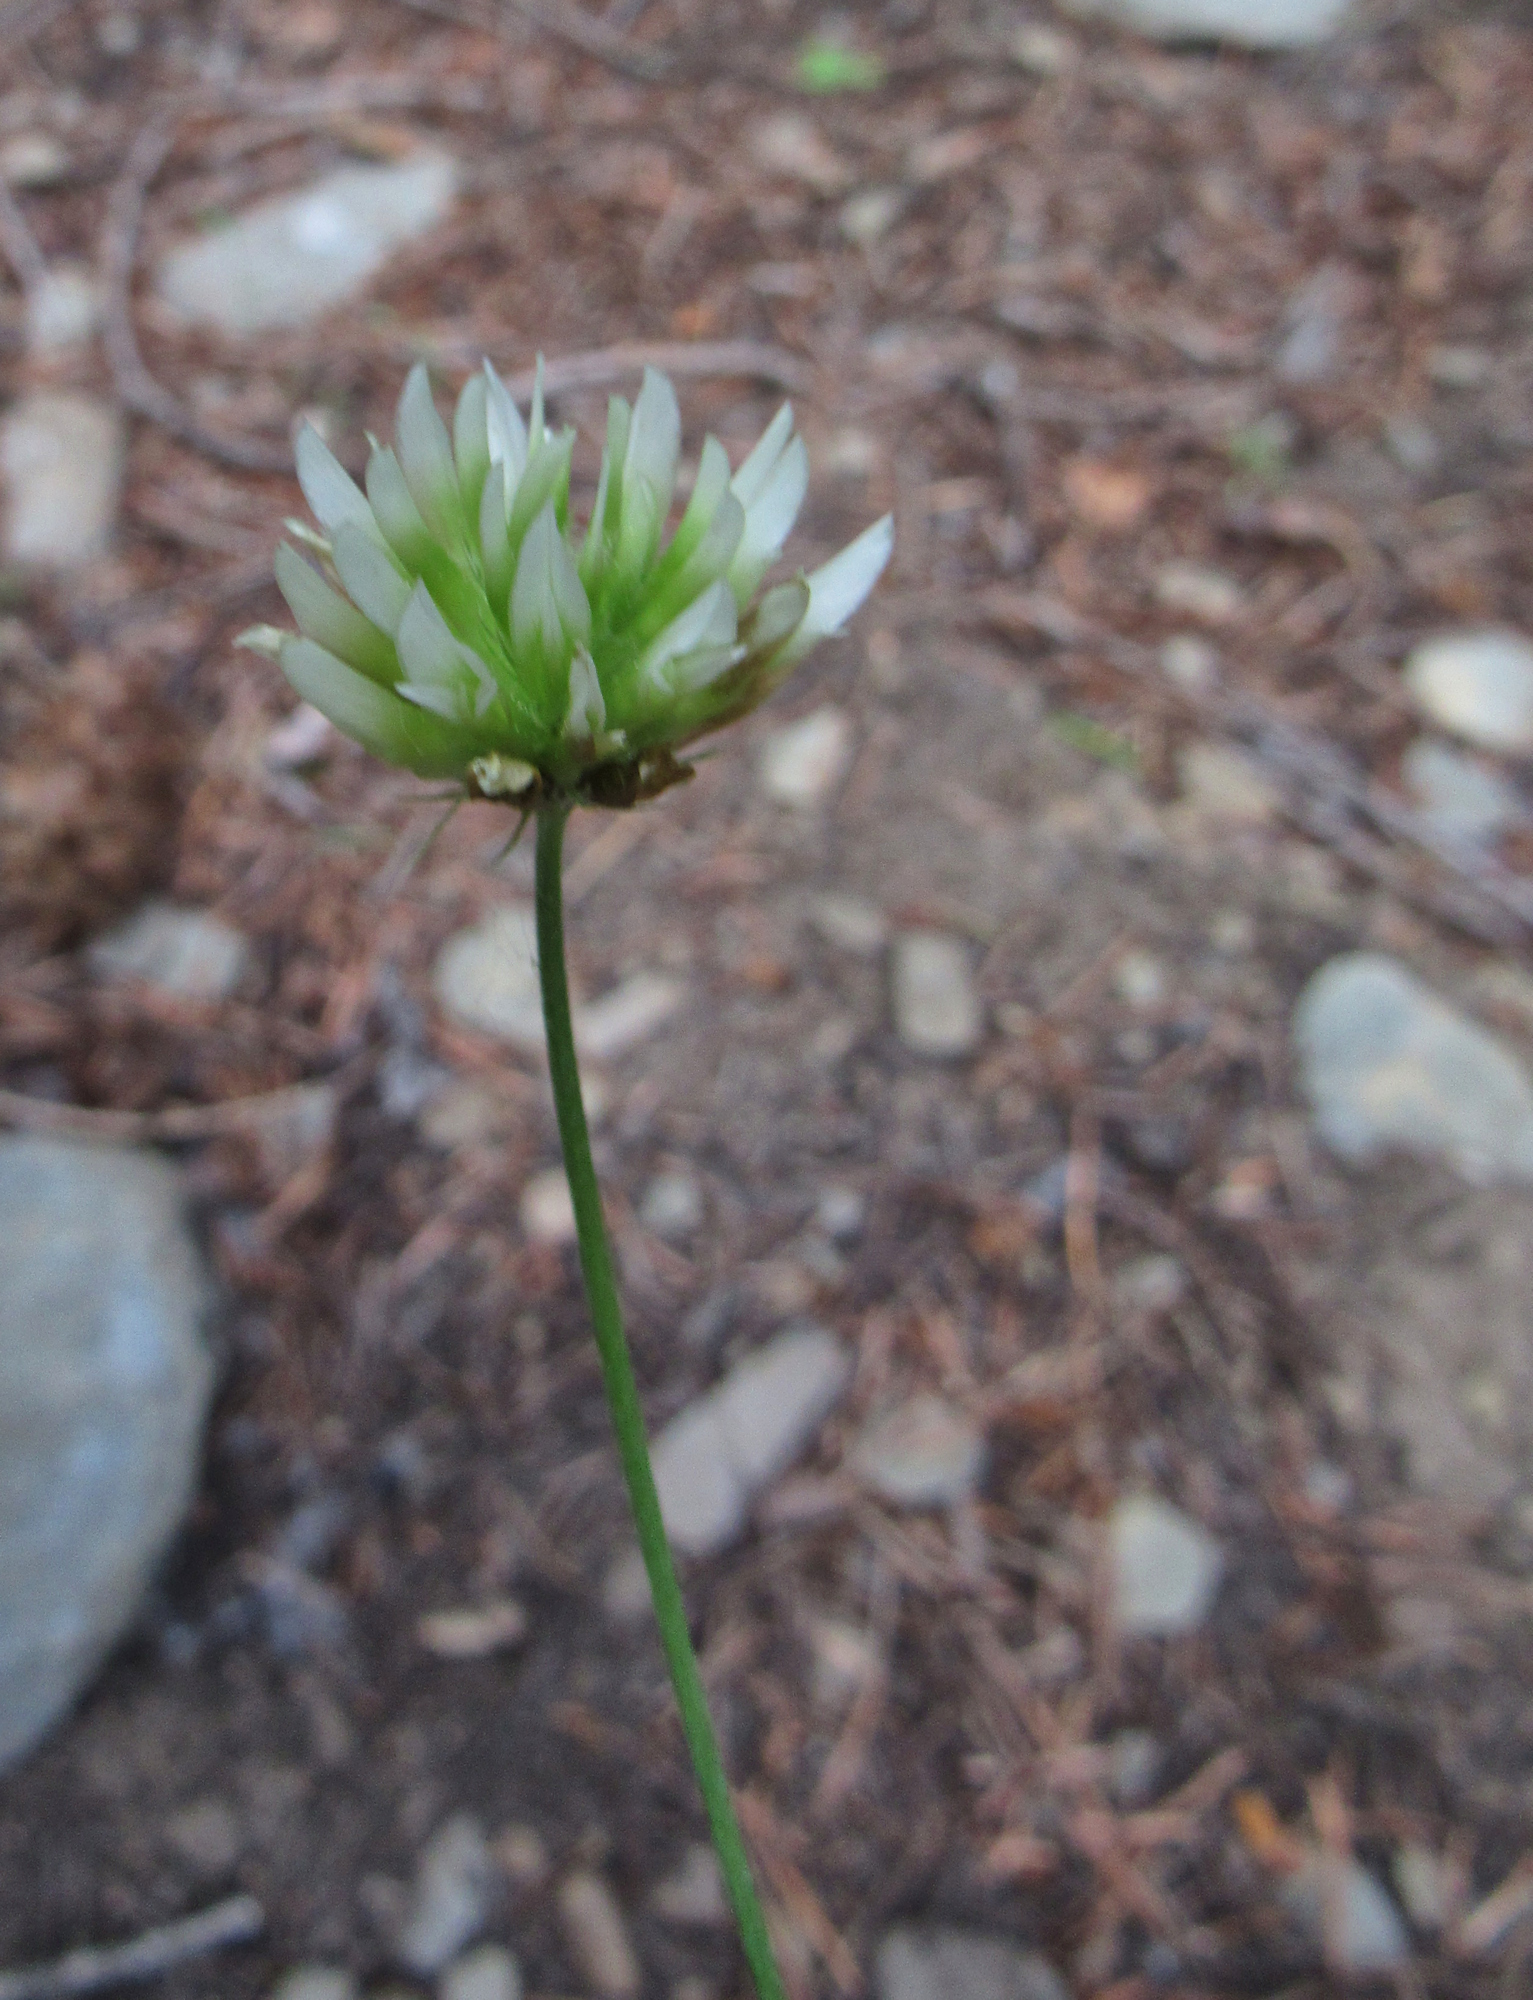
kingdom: Plantae
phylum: Tracheophyta
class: Magnoliopsida
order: Fabales
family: Fabaceae
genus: Trifolium
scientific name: Trifolium longipes
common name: Long-stalk clover
